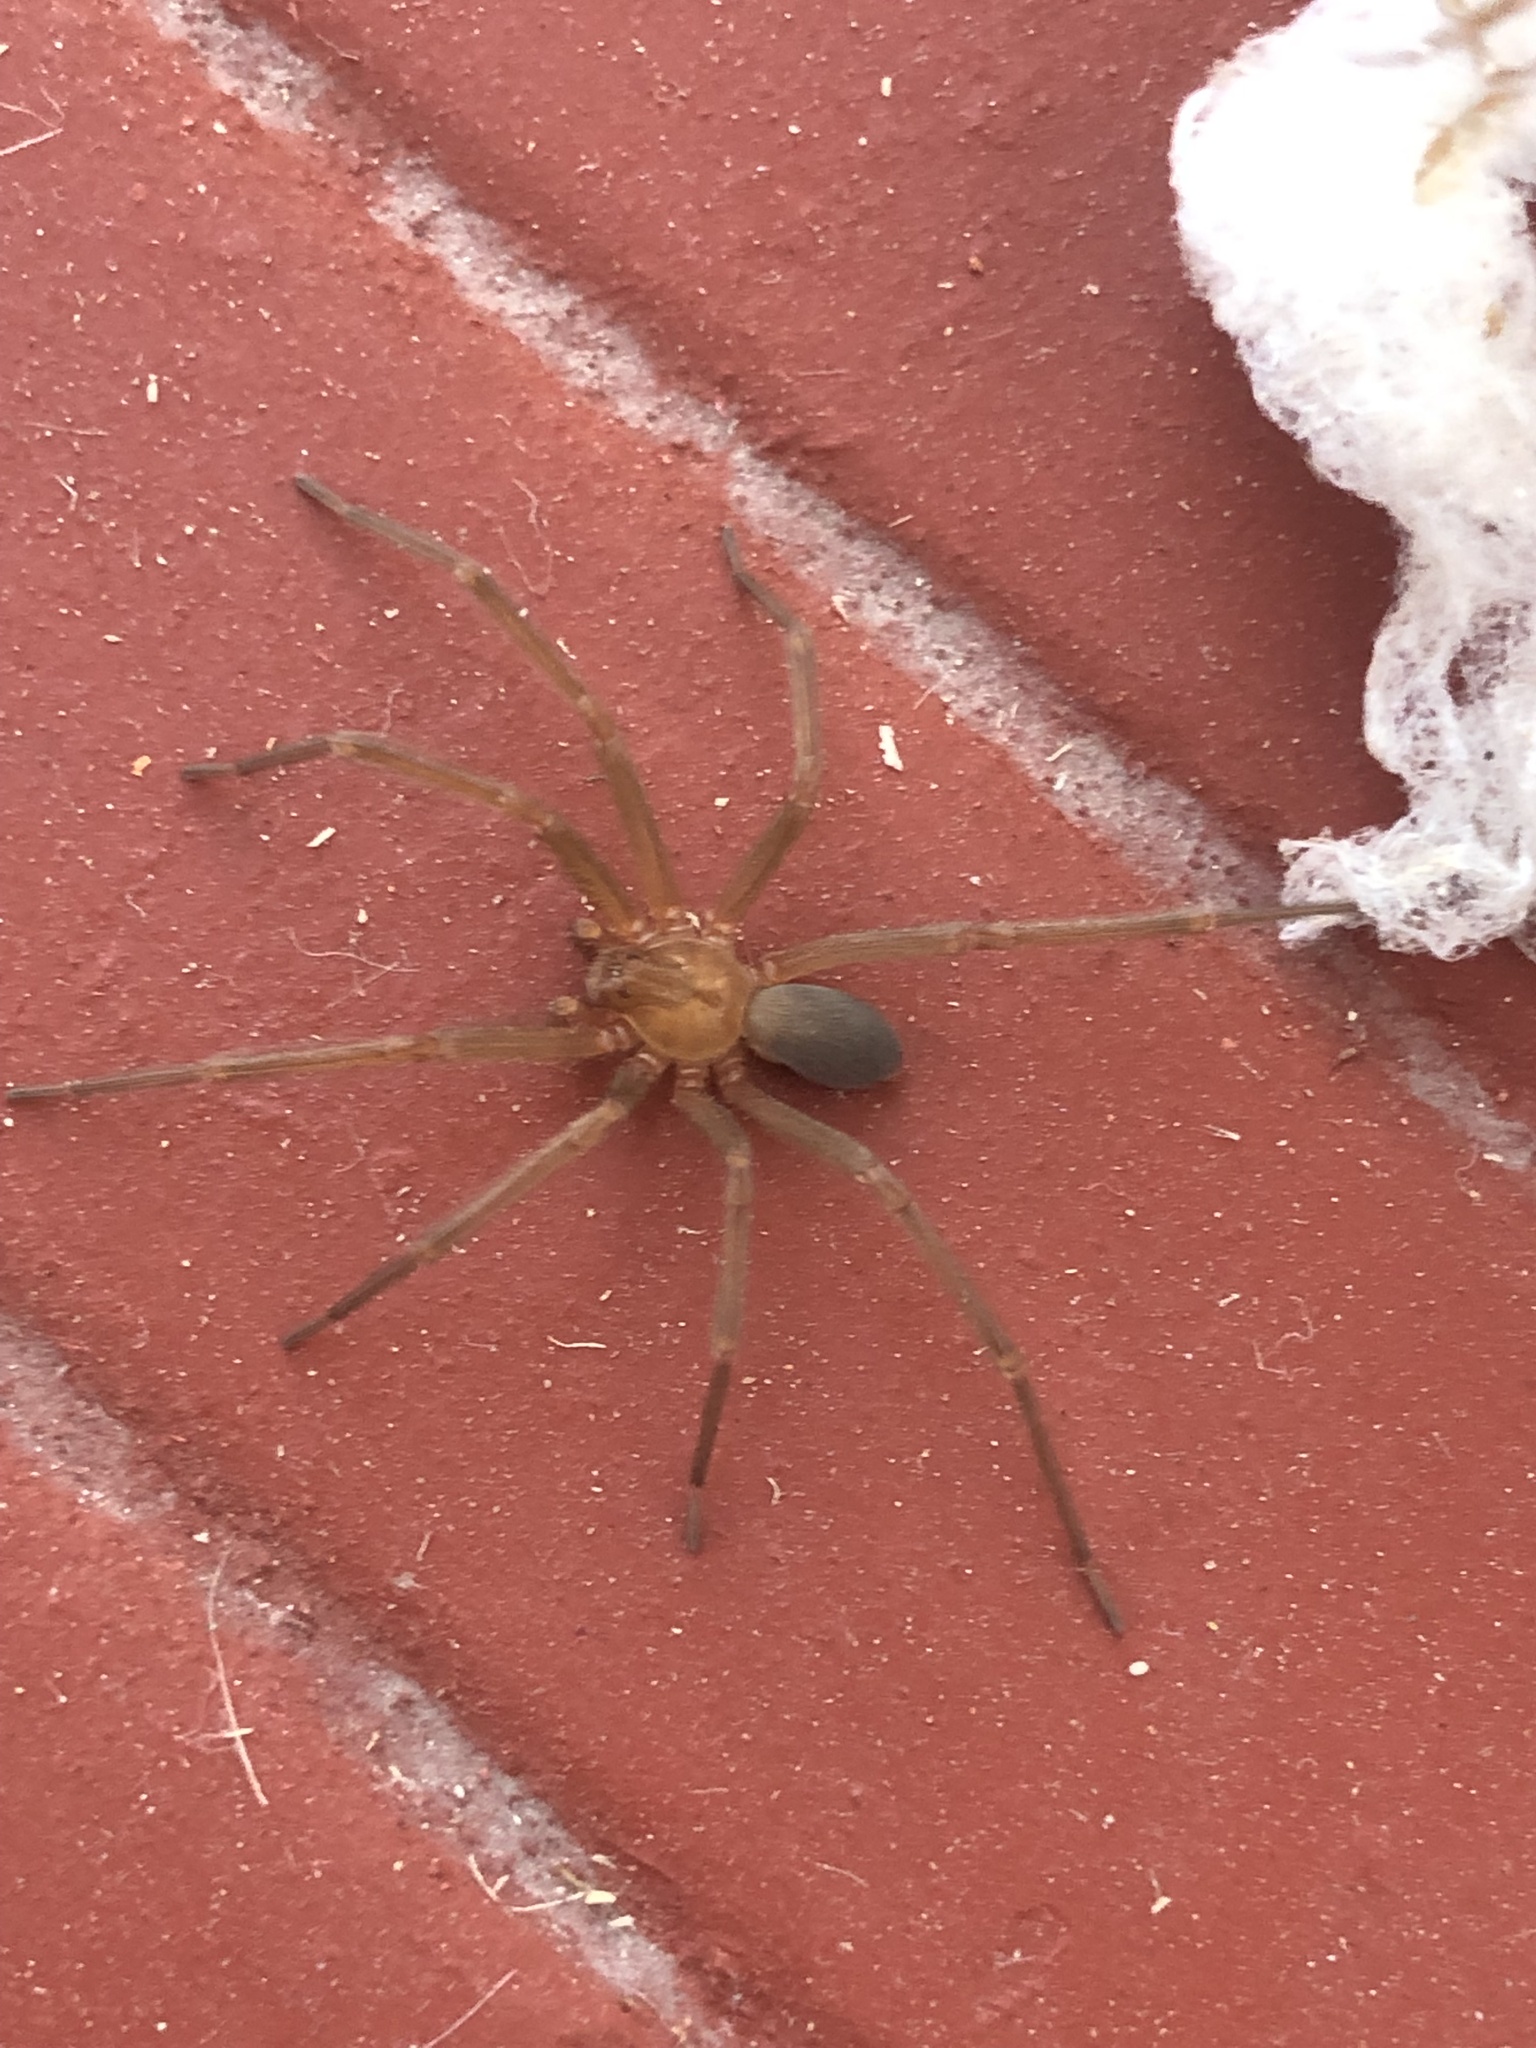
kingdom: Animalia
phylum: Arthropoda
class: Arachnida
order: Araneae
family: Sicariidae
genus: Loxosceles
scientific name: Loxosceles laeta
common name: Chilean recluse spider
